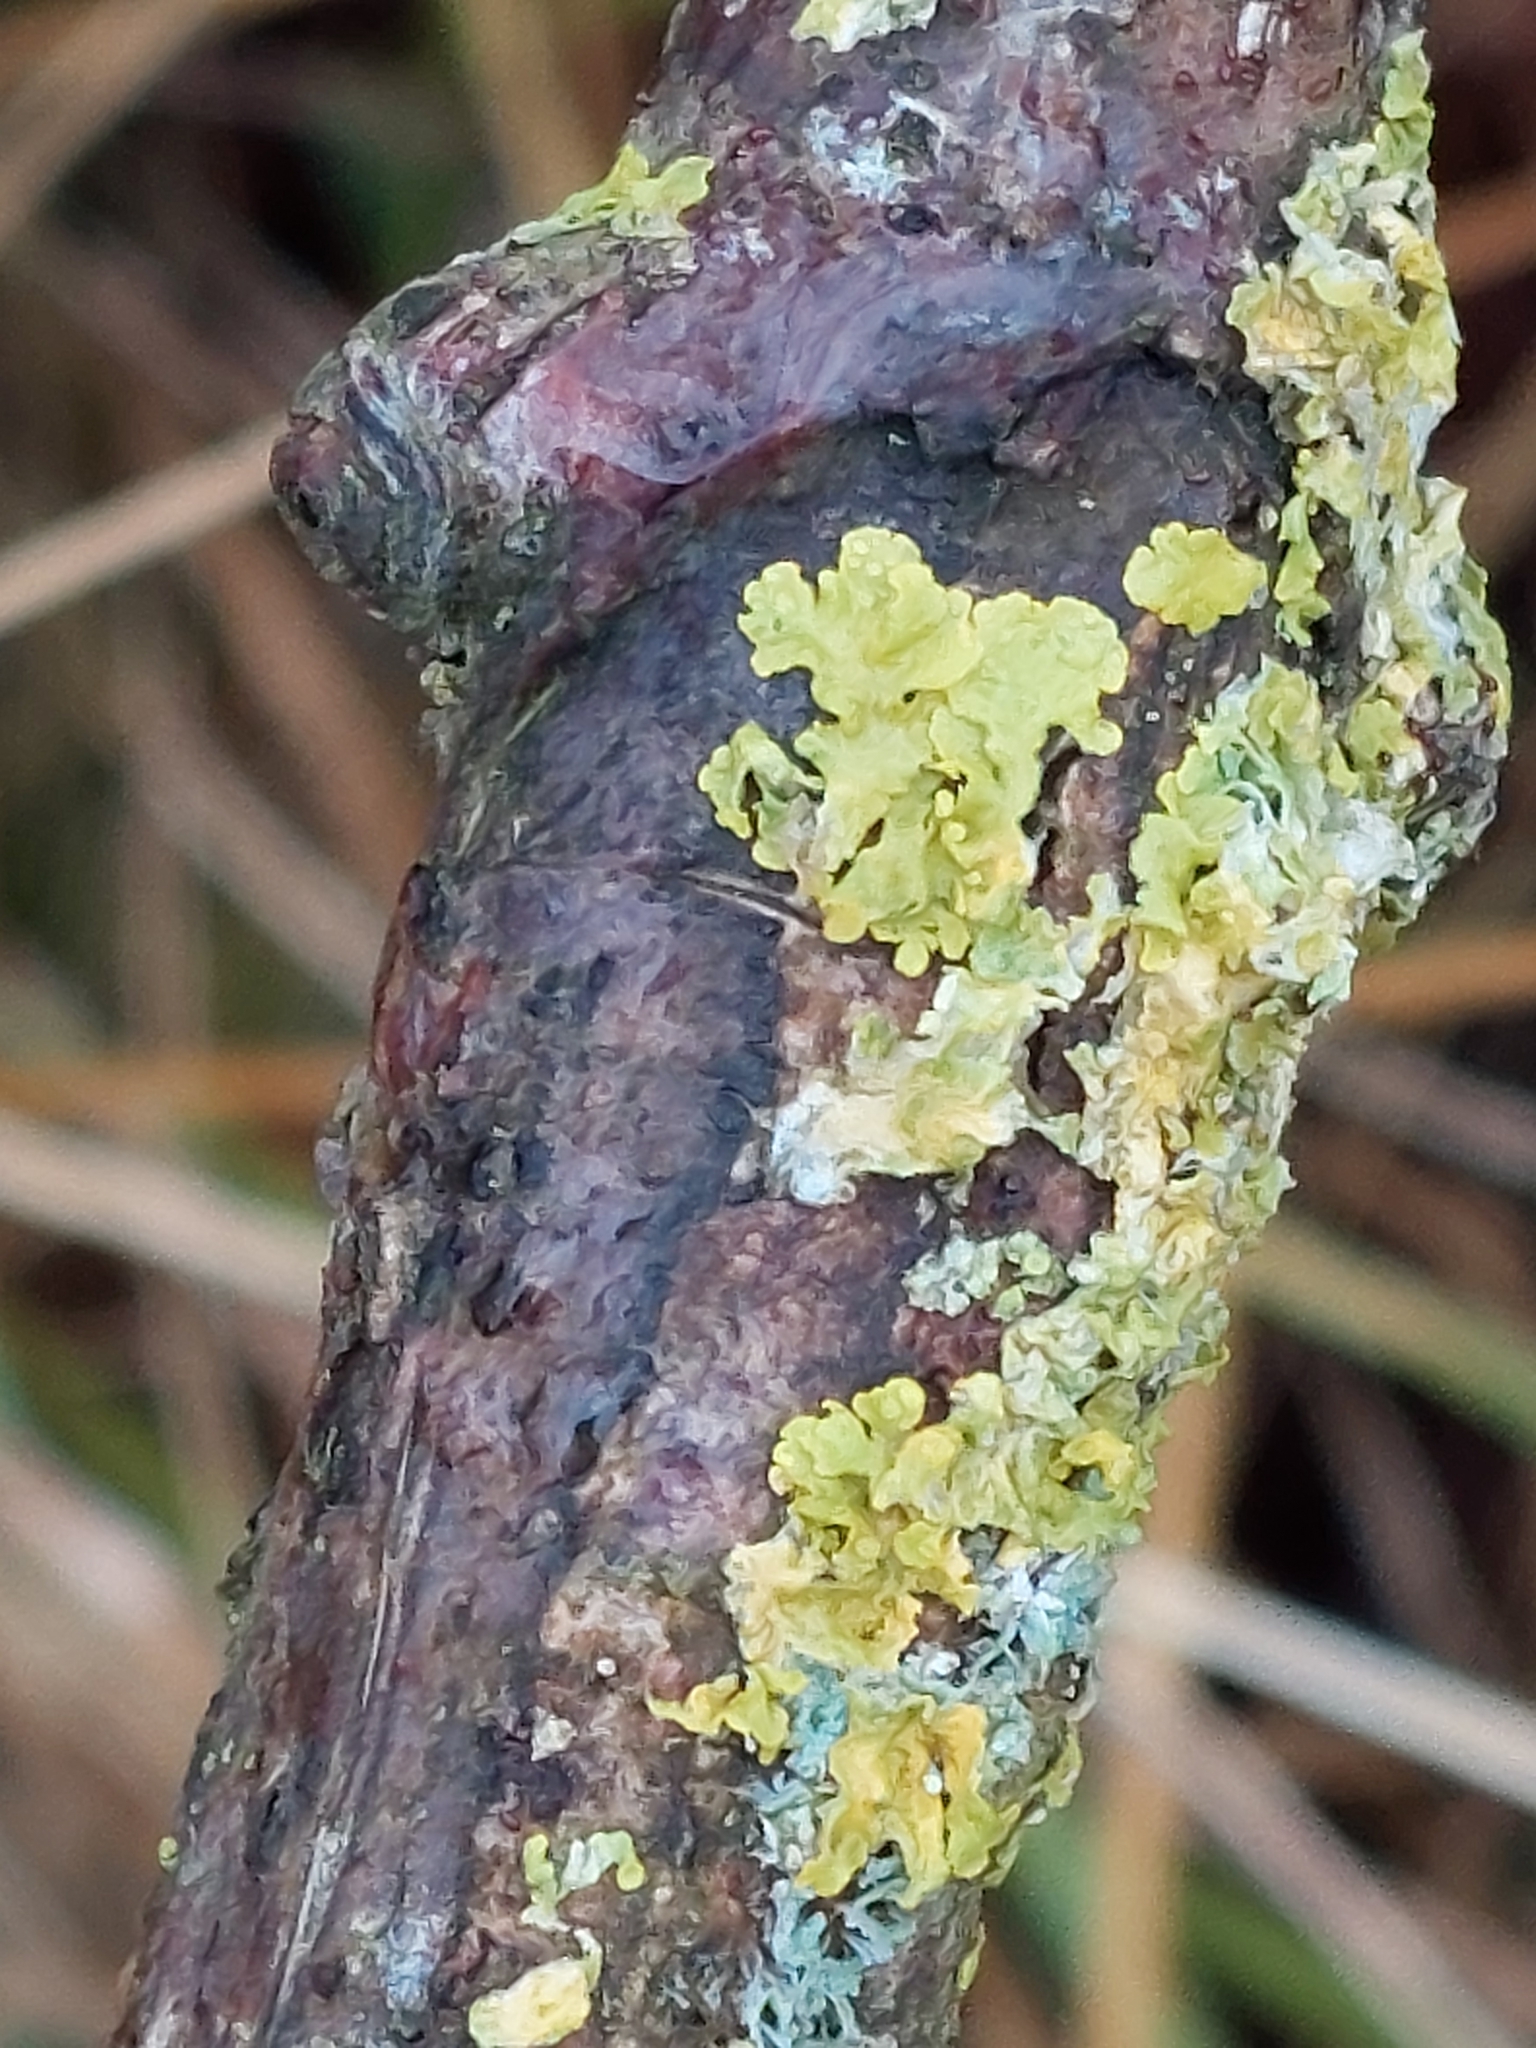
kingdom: Fungi
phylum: Ascomycota
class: Lecanoromycetes
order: Teloschistales
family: Teloschistaceae
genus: Xanthoria
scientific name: Xanthoria parietina
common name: Common orange lichen
